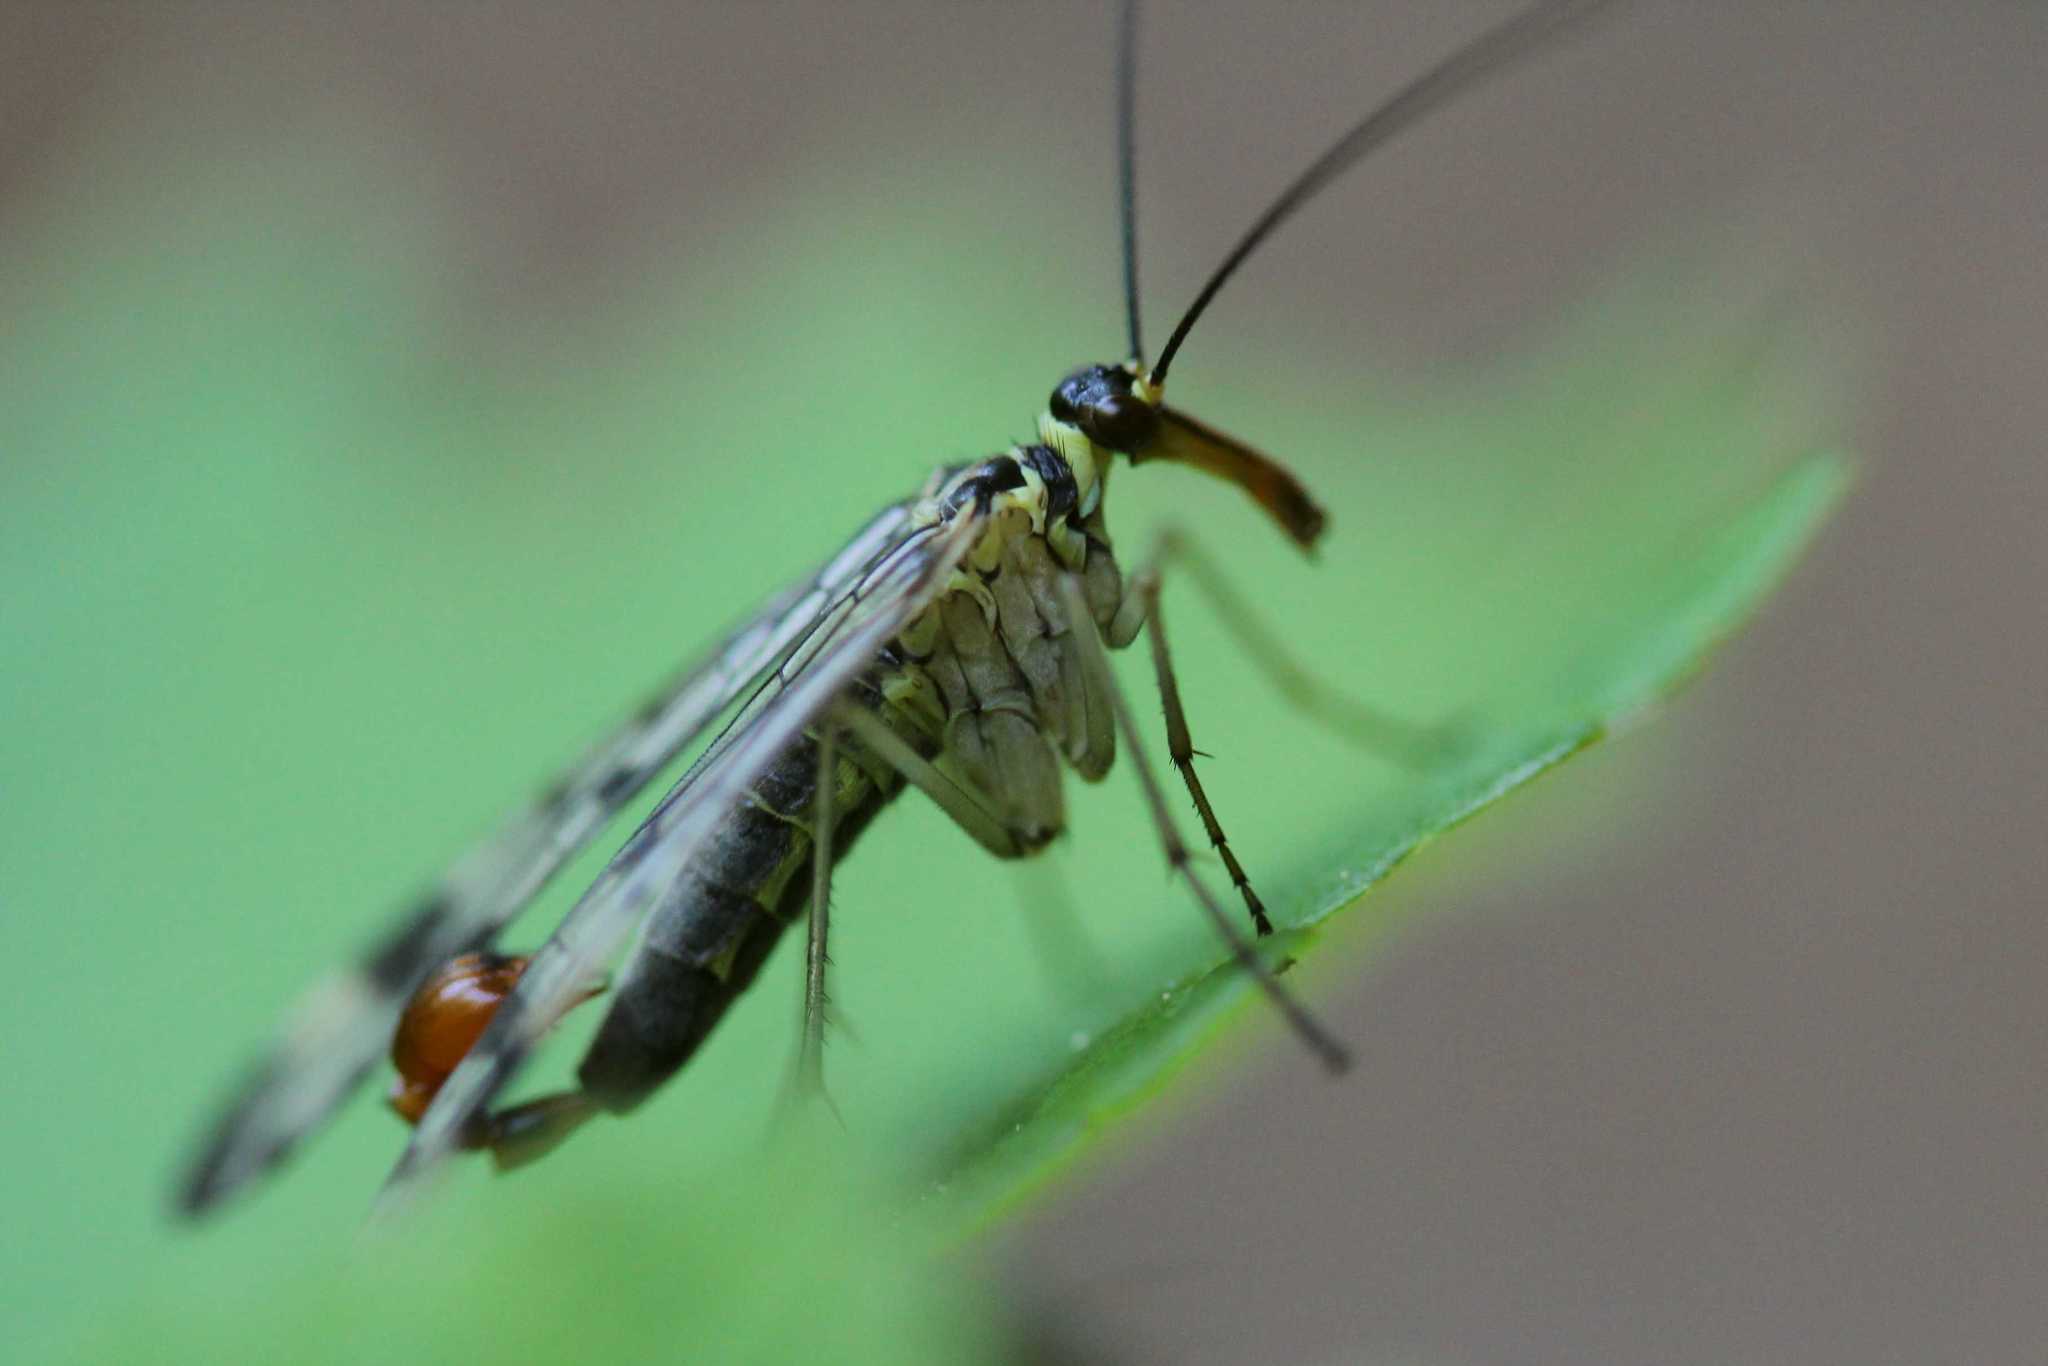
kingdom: Animalia
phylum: Arthropoda
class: Insecta
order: Mecoptera
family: Panorpidae
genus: Panorpa
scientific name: Panorpa
